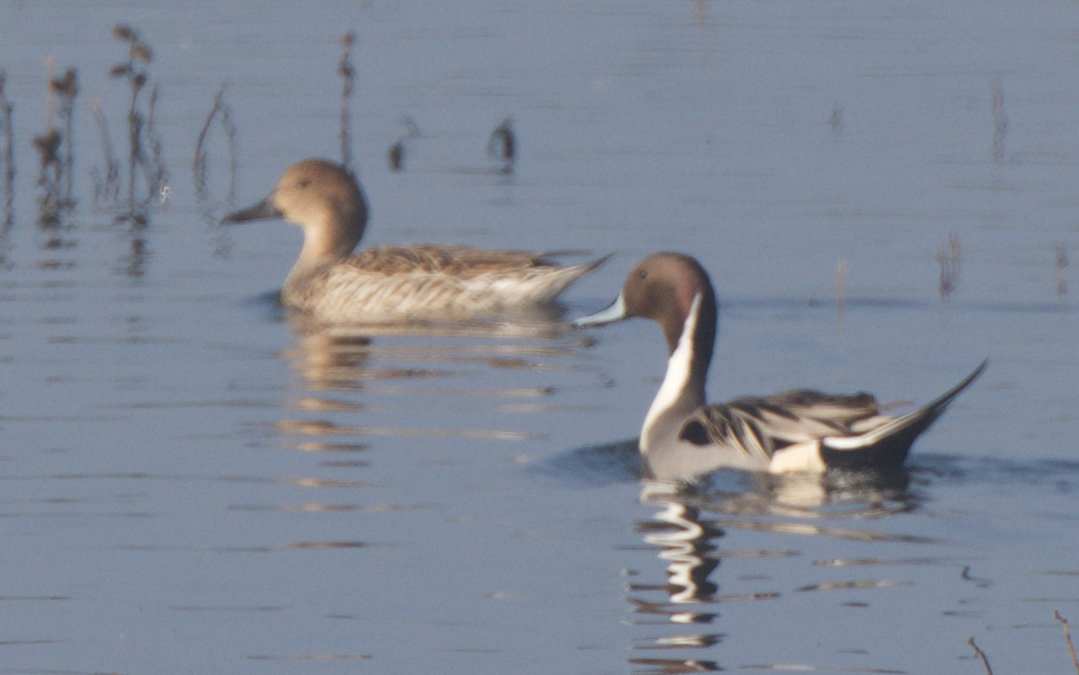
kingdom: Animalia
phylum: Chordata
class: Aves
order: Anseriformes
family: Anatidae
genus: Anas
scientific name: Anas acuta
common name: Northern pintail
